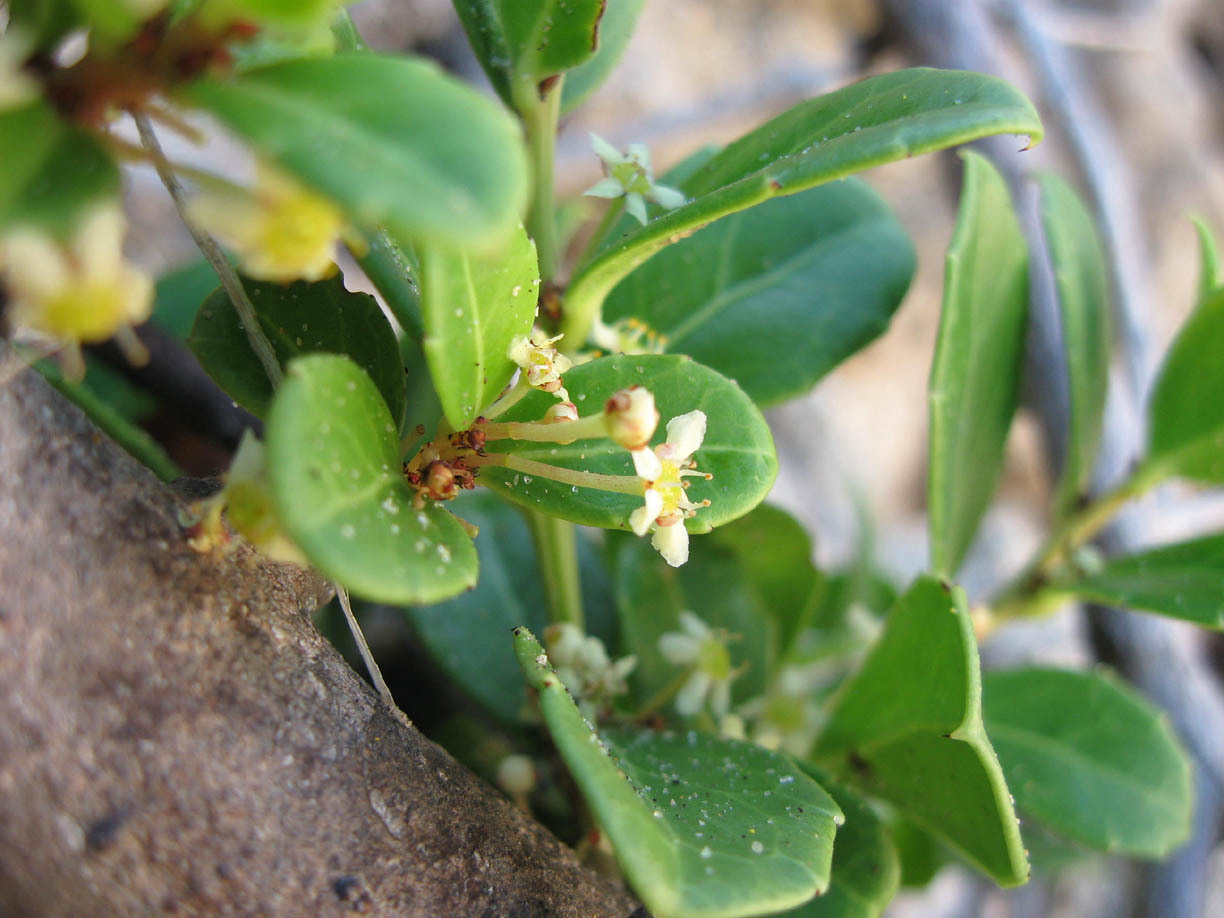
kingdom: Plantae
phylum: Tracheophyta
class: Magnoliopsida
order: Celastrales
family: Celastraceae
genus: Gymnosporia
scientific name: Gymnosporia procumbens
